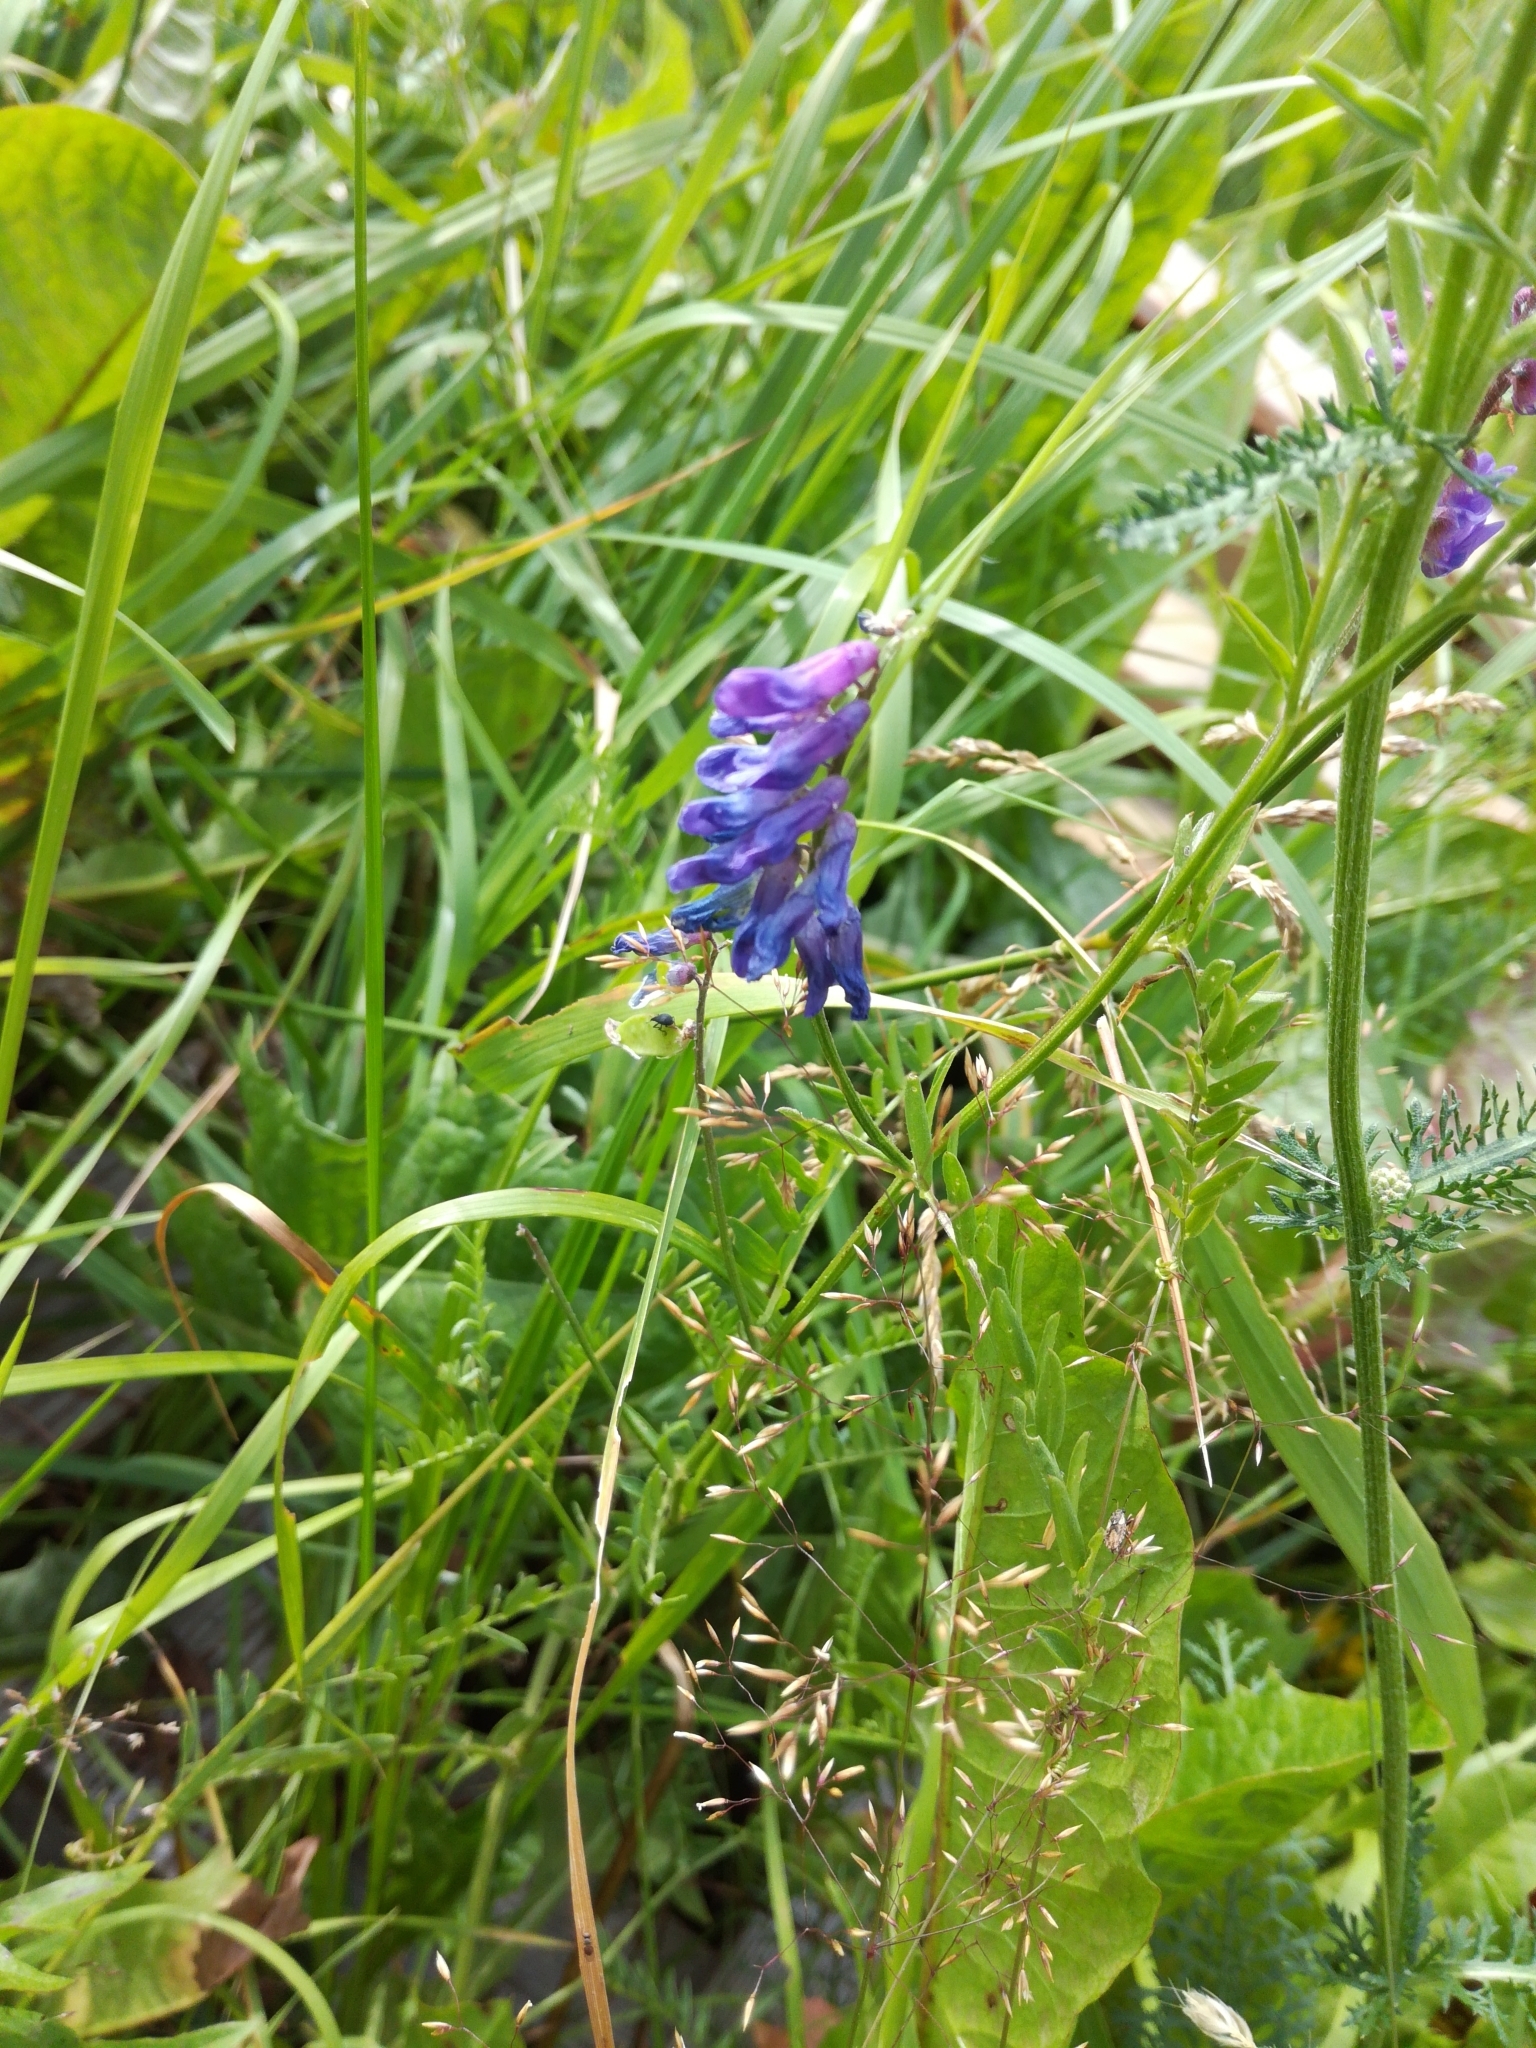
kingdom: Plantae
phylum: Tracheophyta
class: Magnoliopsida
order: Fabales
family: Fabaceae
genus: Vicia
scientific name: Vicia cracca
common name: Bird vetch
